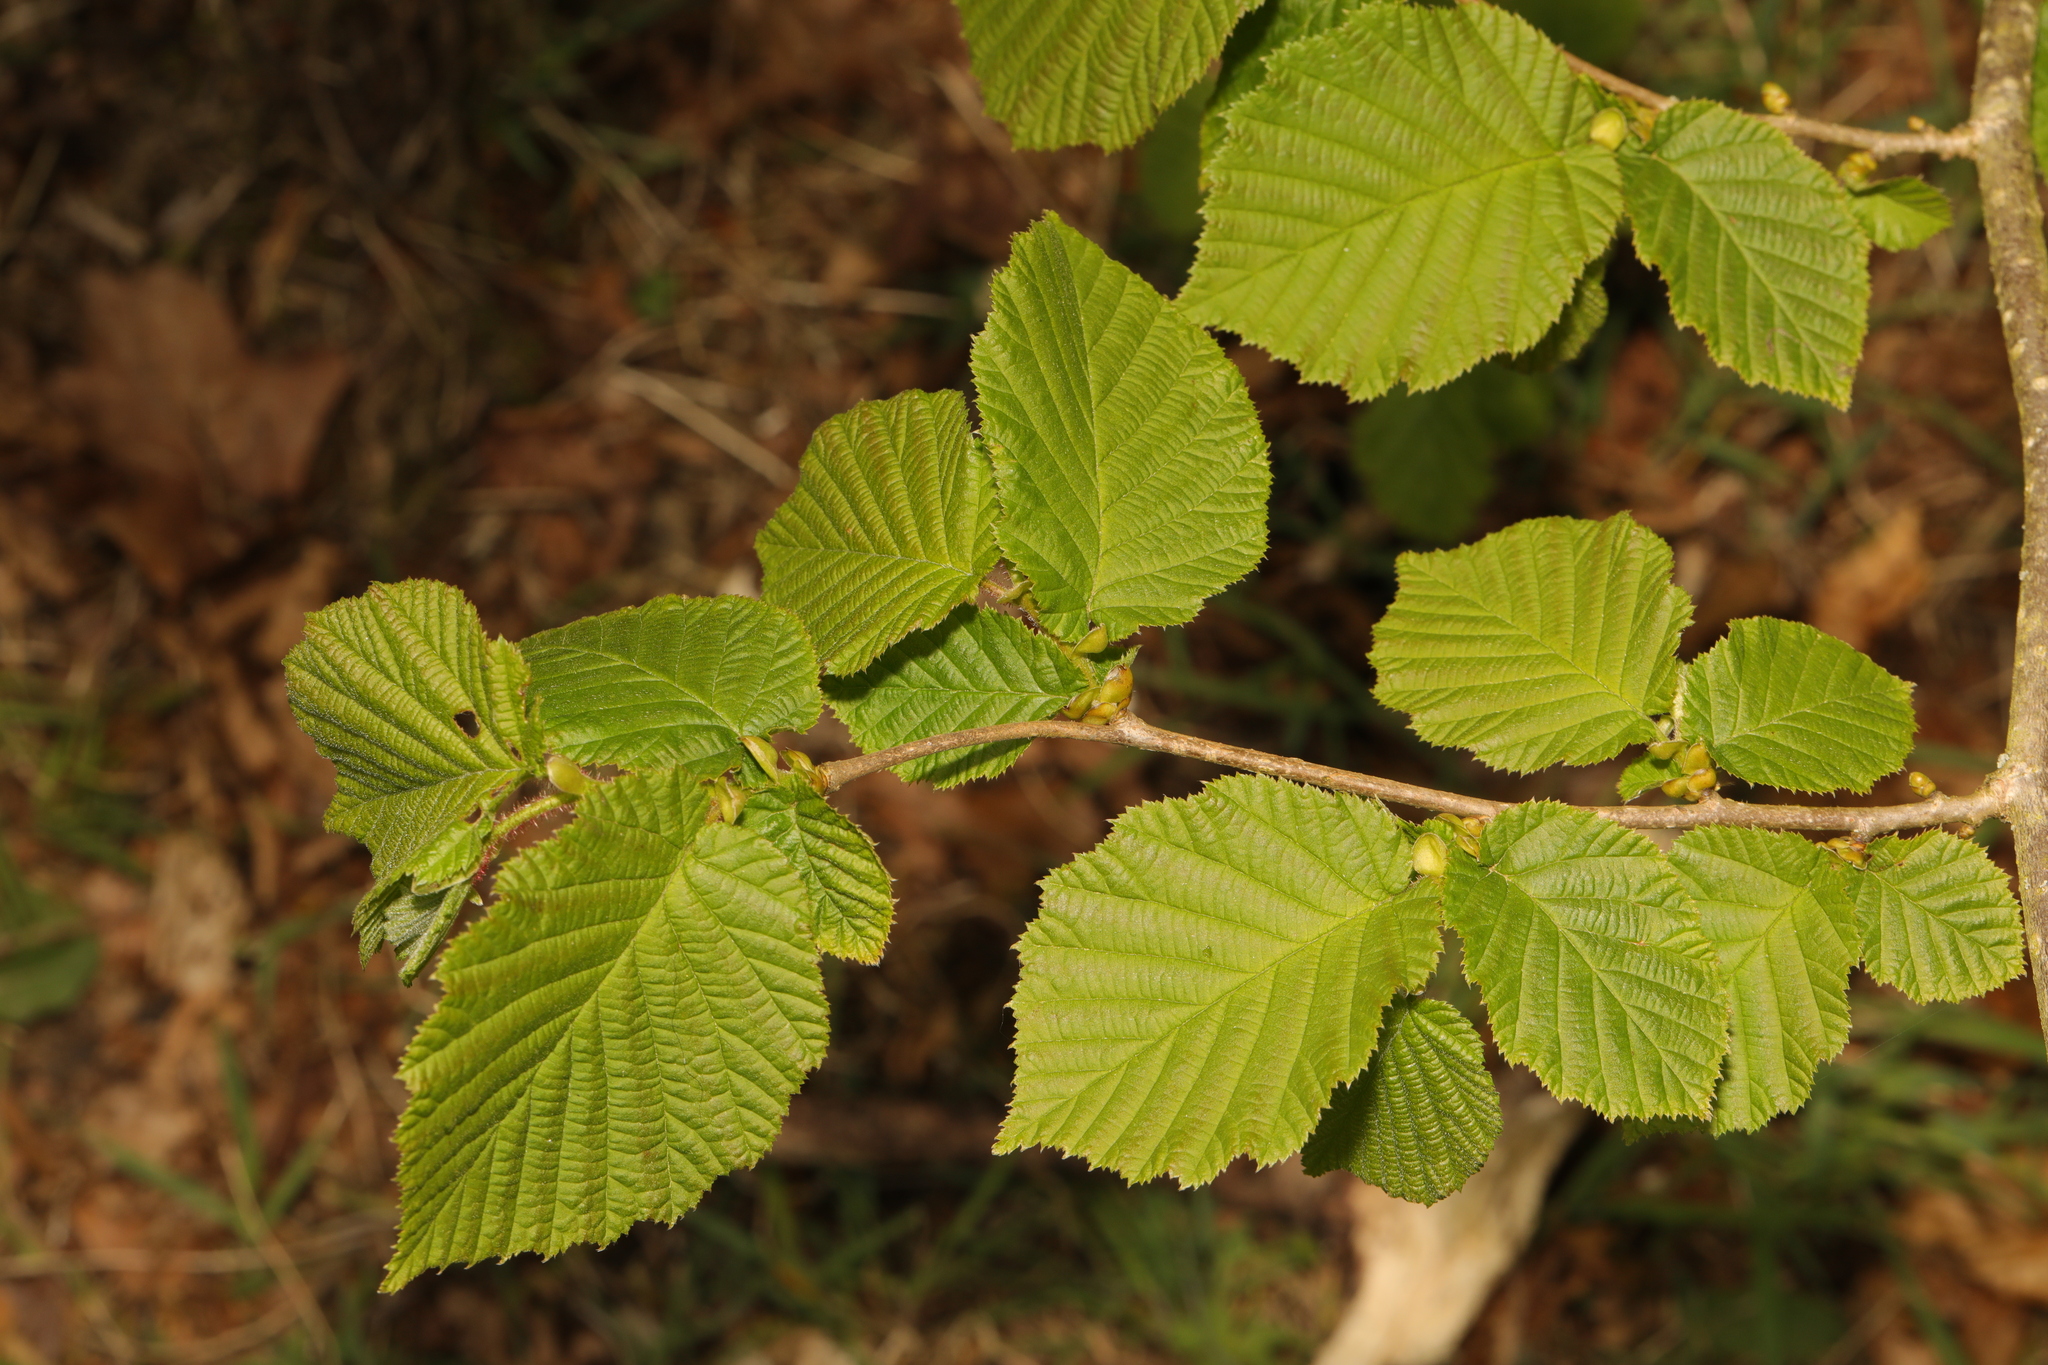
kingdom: Plantae
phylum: Tracheophyta
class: Magnoliopsida
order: Fagales
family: Betulaceae
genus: Corylus
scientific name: Corylus avellana
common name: European hazel
